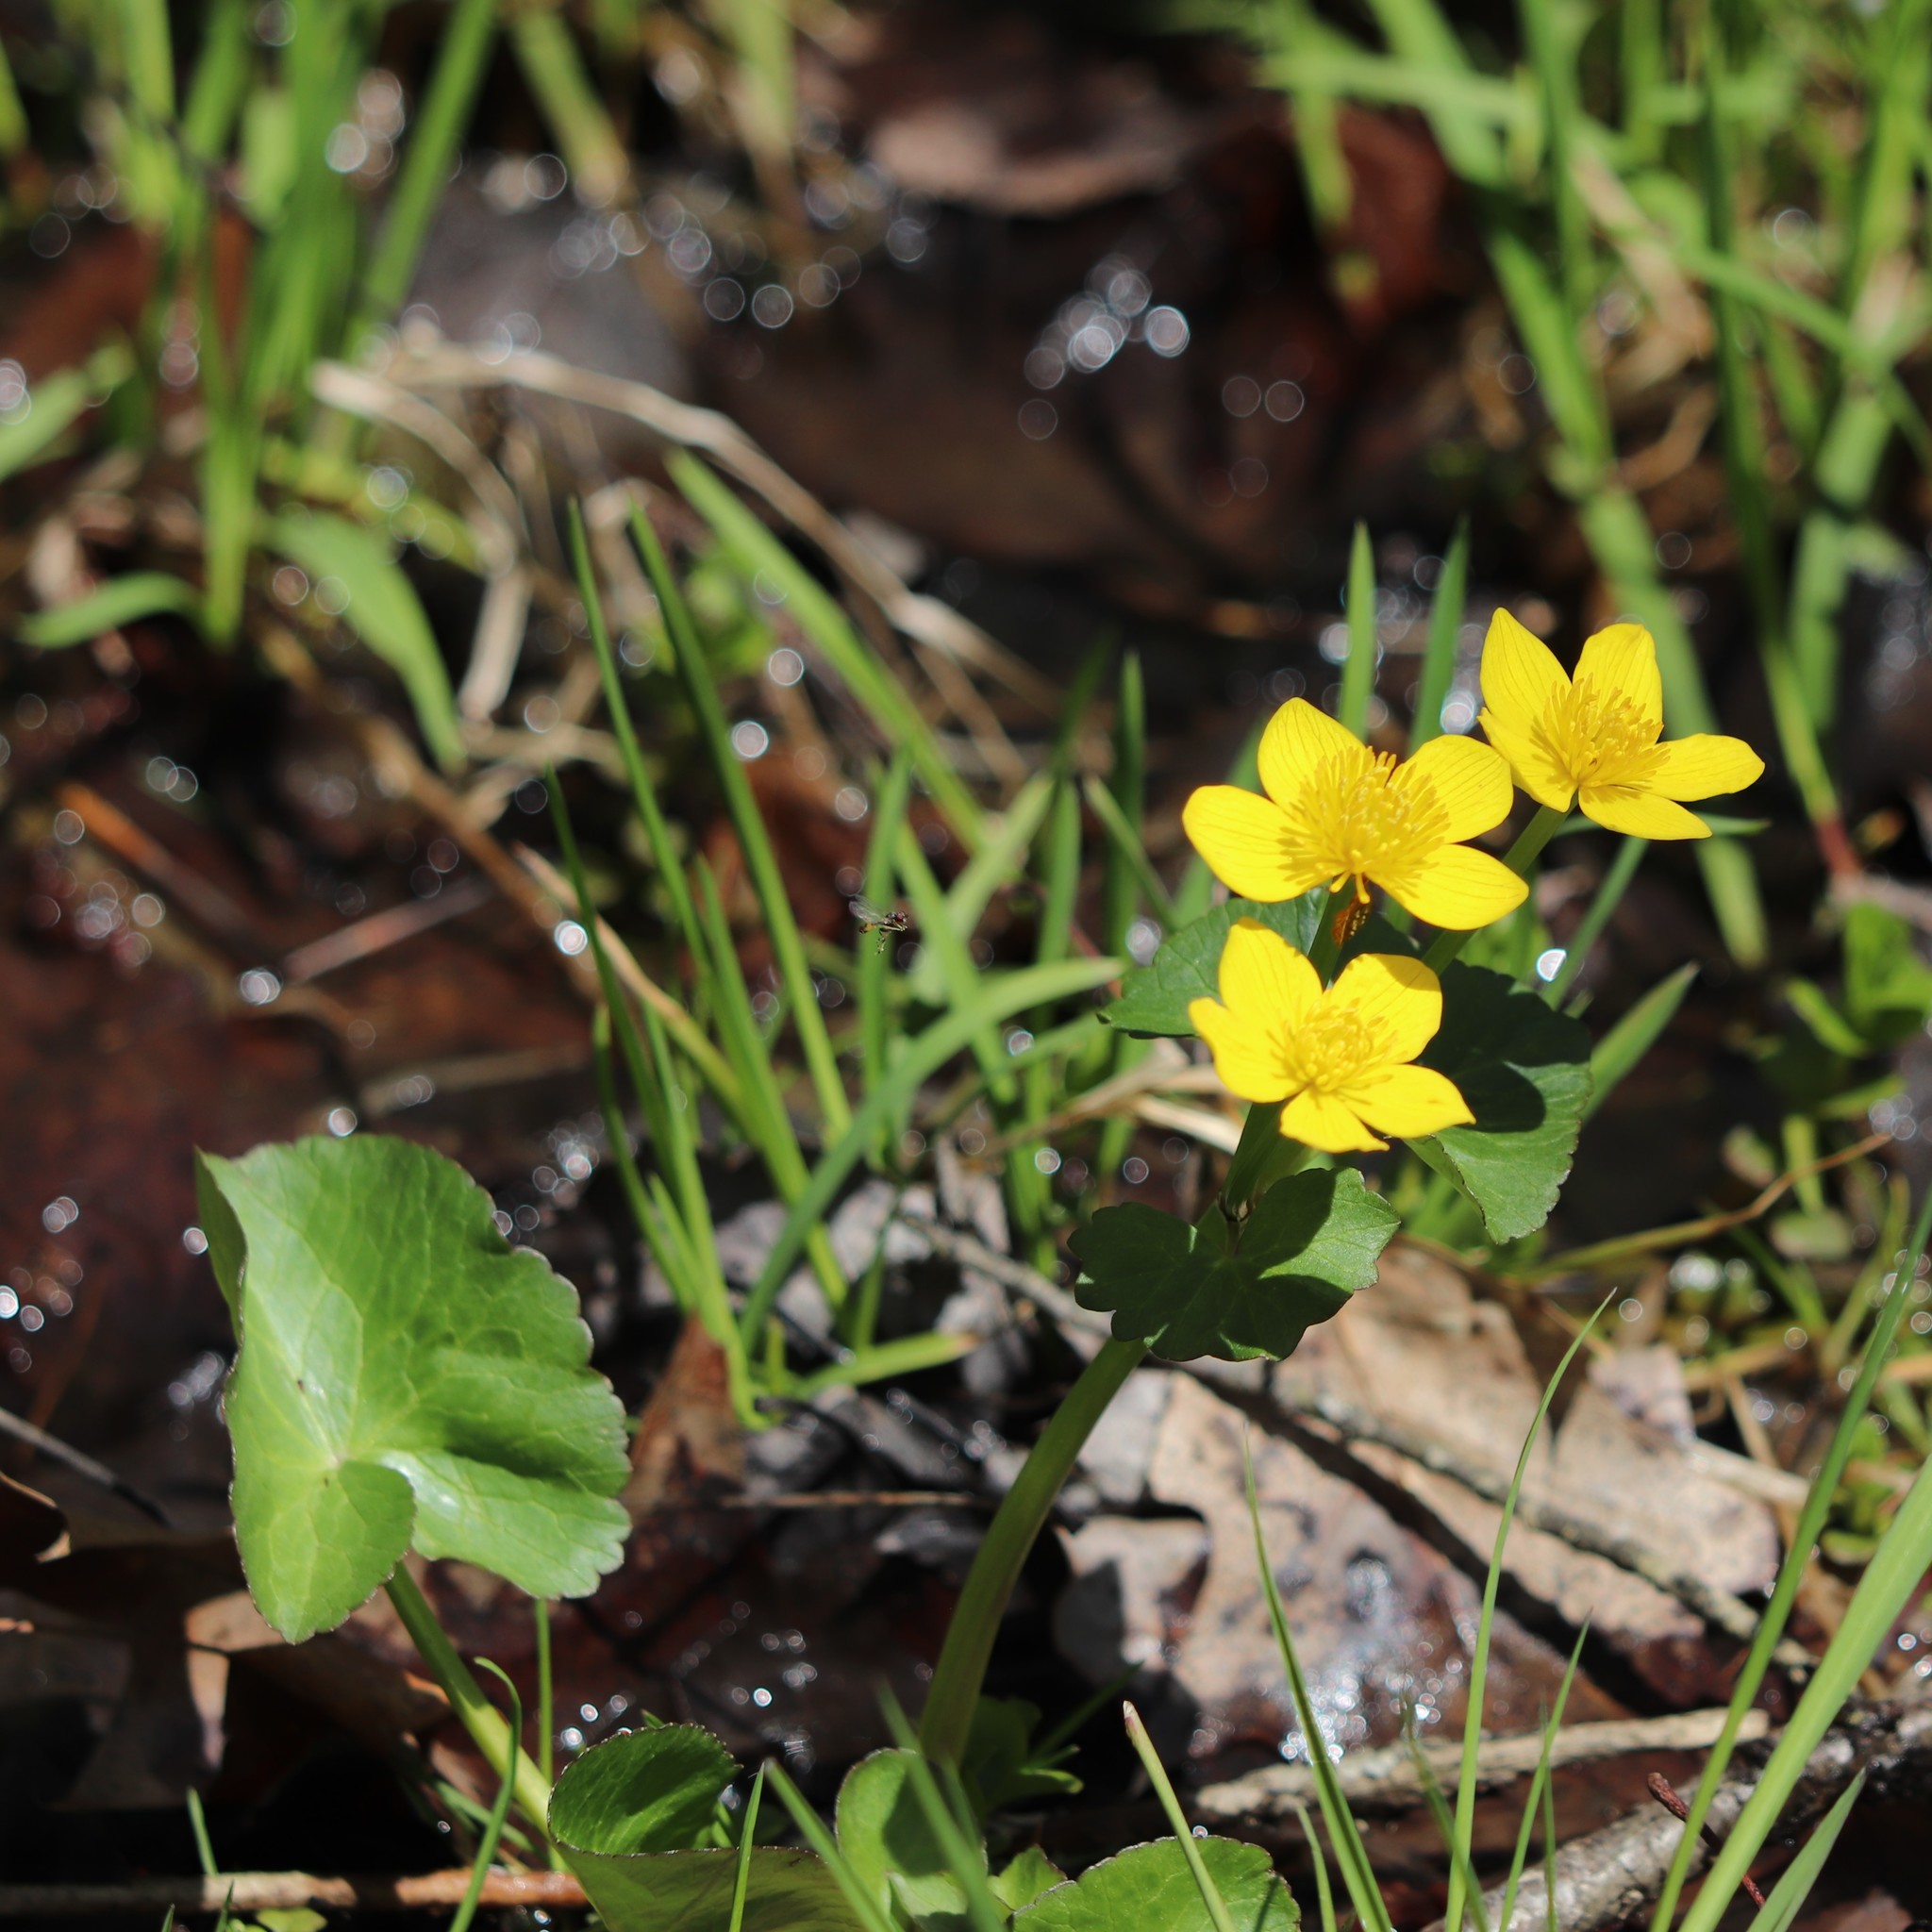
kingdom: Plantae
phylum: Tracheophyta
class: Magnoliopsida
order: Ranunculales
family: Ranunculaceae
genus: Caltha
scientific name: Caltha palustris
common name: Marsh marigold
